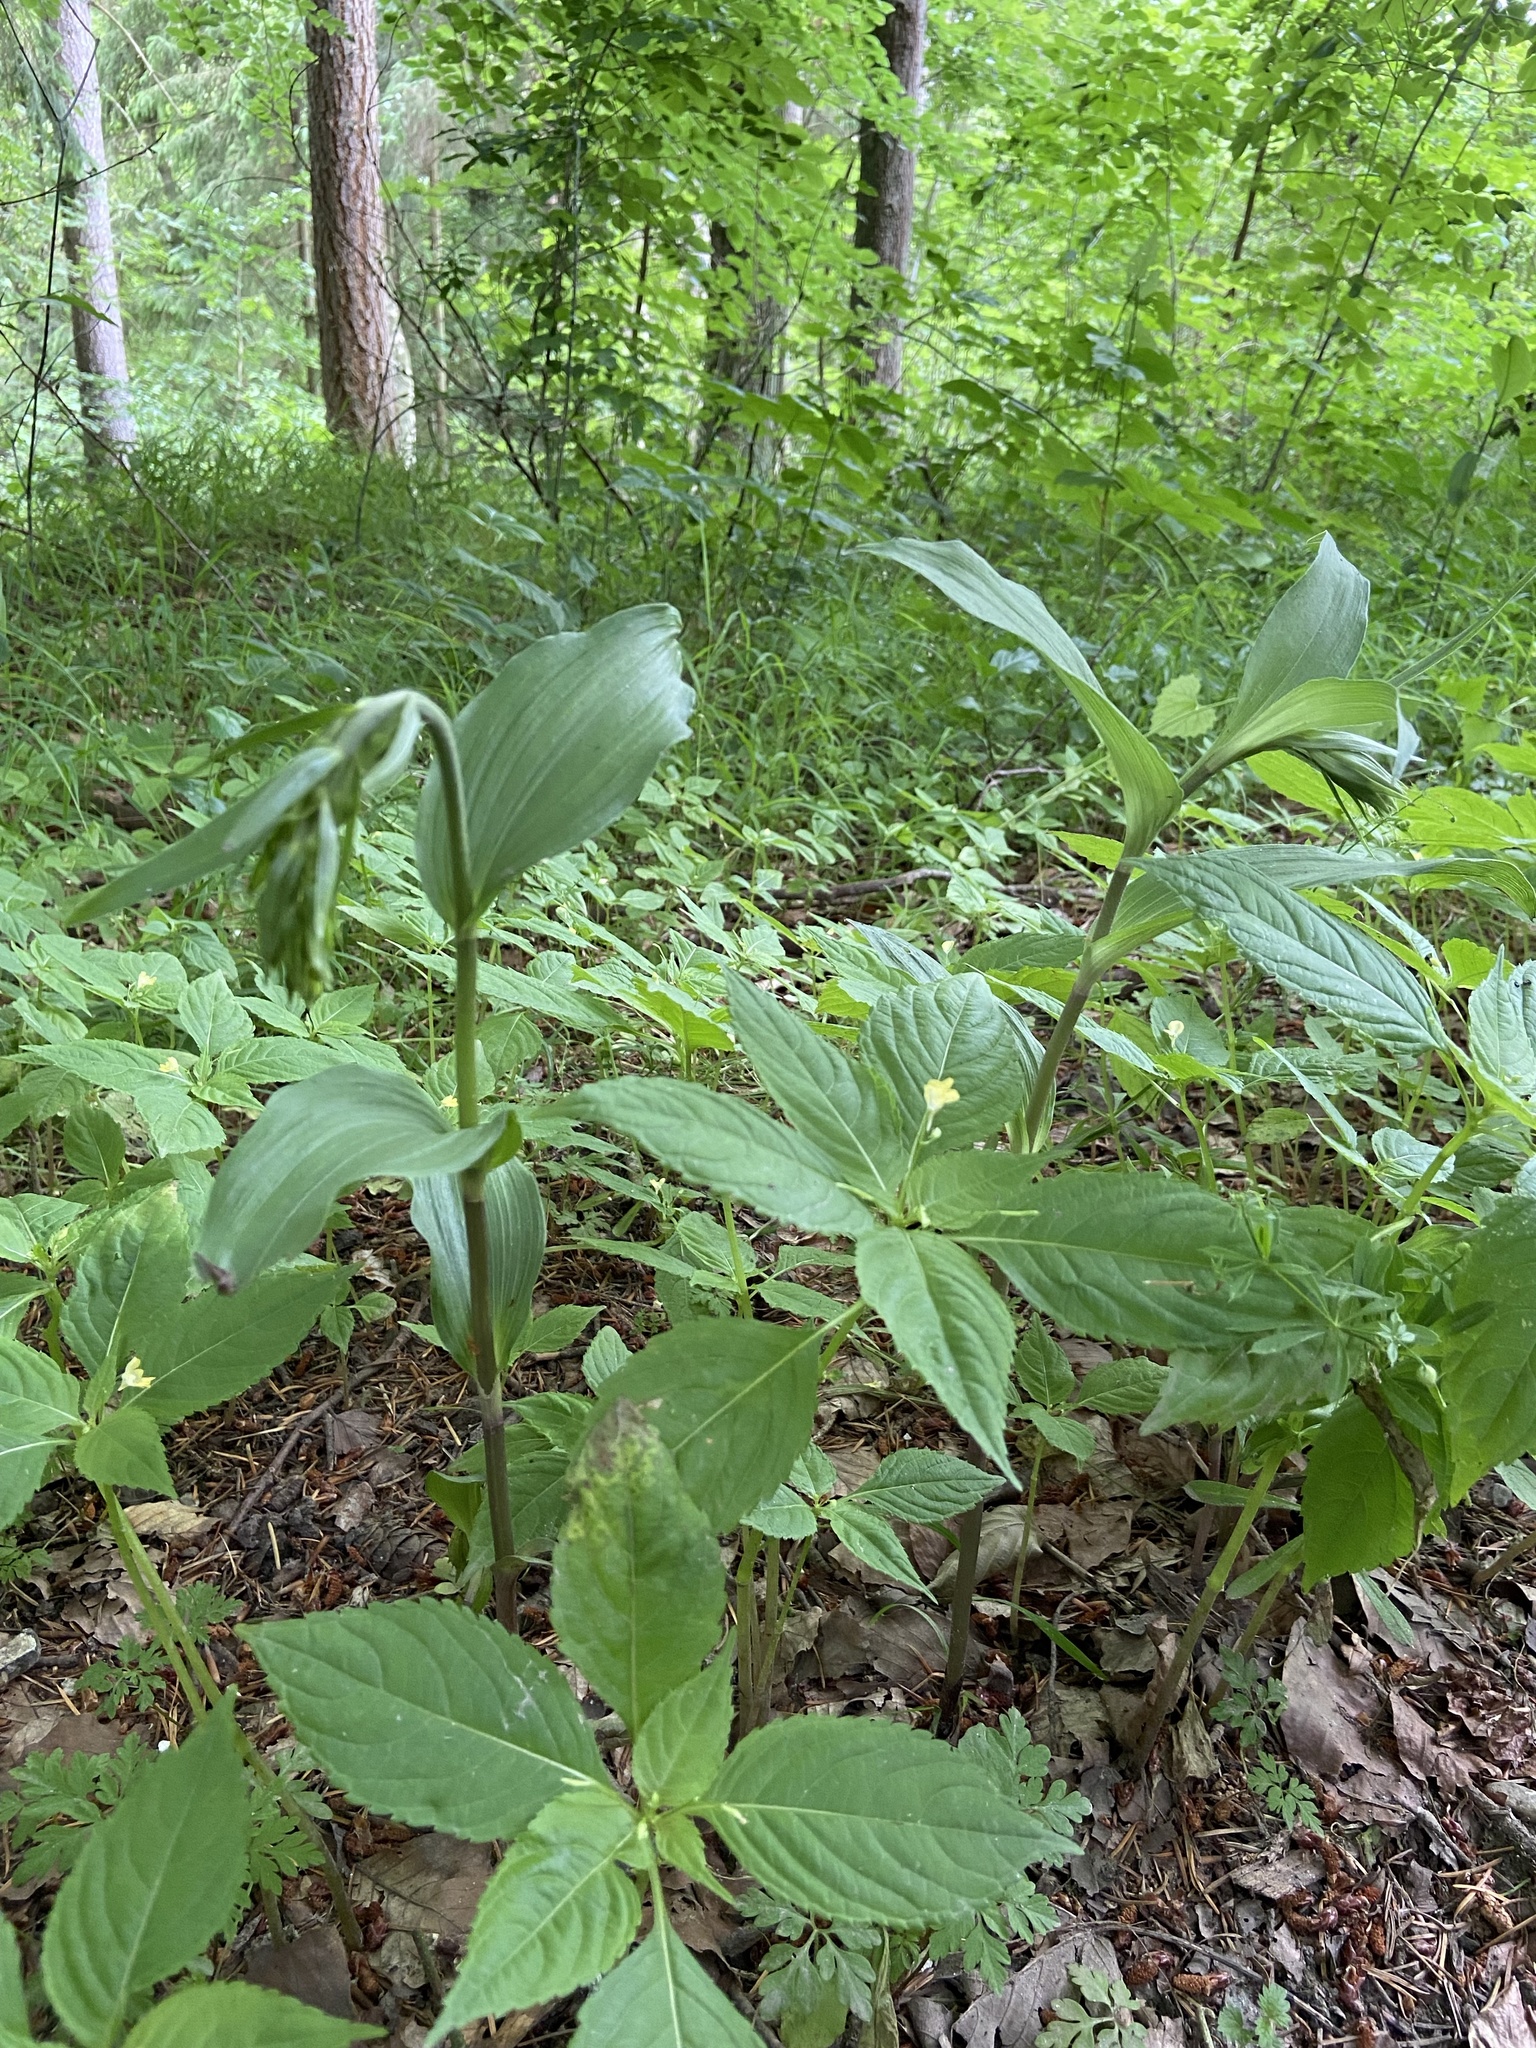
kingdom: Plantae
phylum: Tracheophyta
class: Liliopsida
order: Asparagales
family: Orchidaceae
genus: Epipactis
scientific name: Epipactis helleborine
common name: Broad-leaved helleborine
